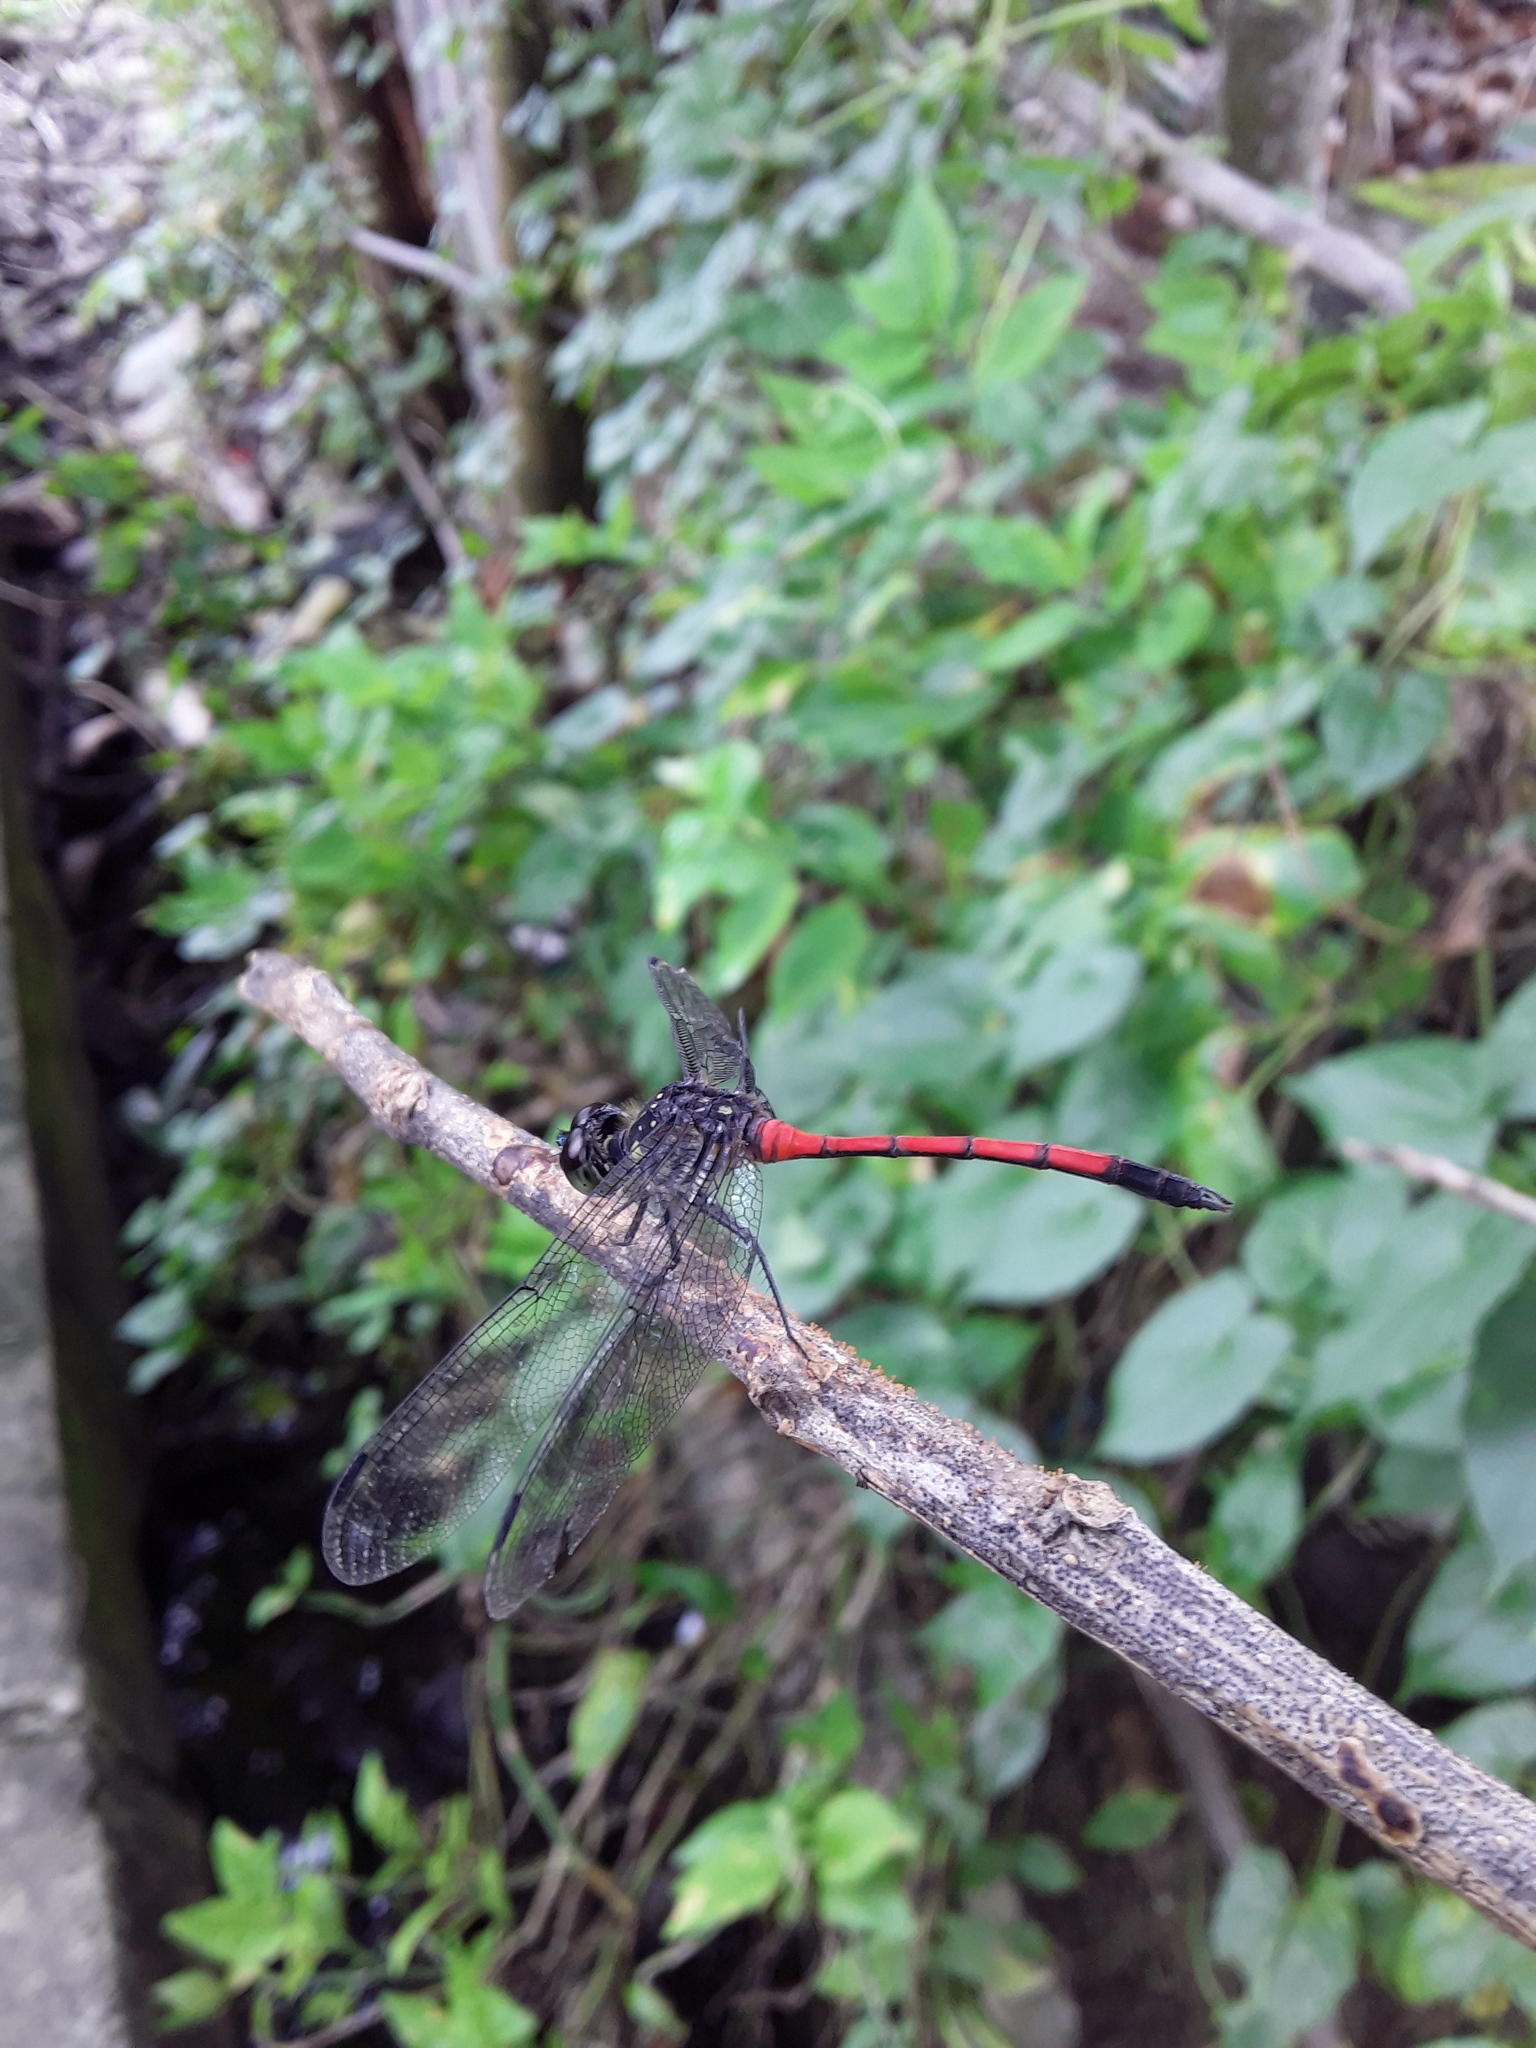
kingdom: Animalia
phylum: Arthropoda
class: Insecta
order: Odonata
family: Libellulidae
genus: Agrionoptera
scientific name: Agrionoptera insignis
